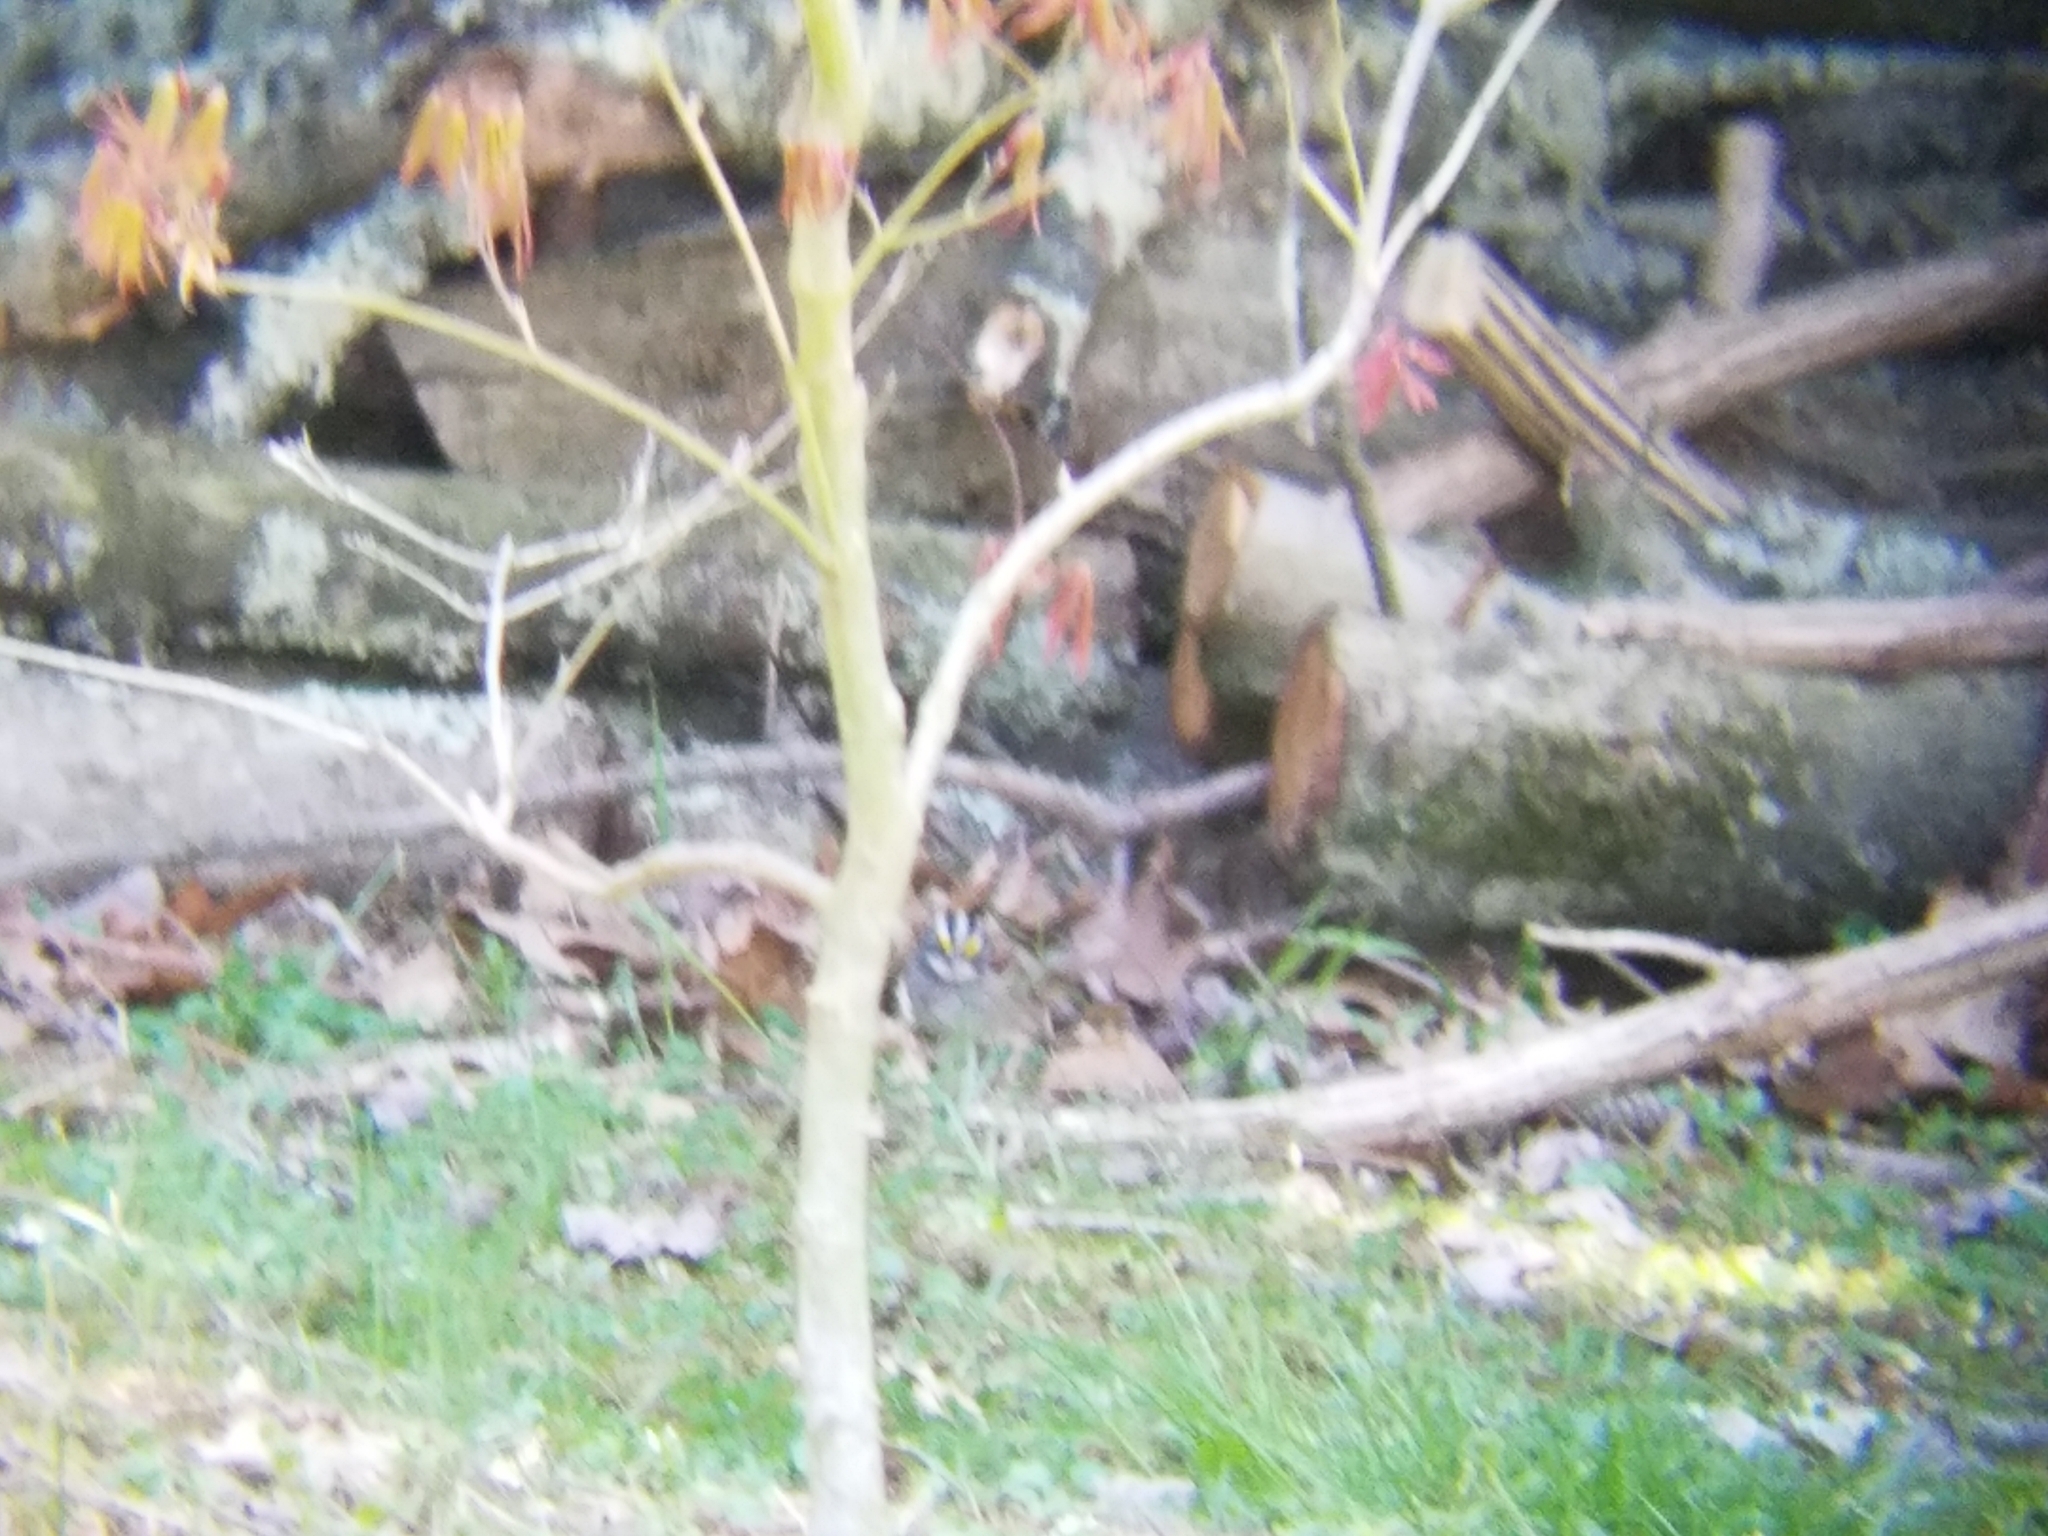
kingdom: Animalia
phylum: Chordata
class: Aves
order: Passeriformes
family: Passerellidae
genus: Zonotrichia
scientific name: Zonotrichia albicollis
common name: White-throated sparrow
